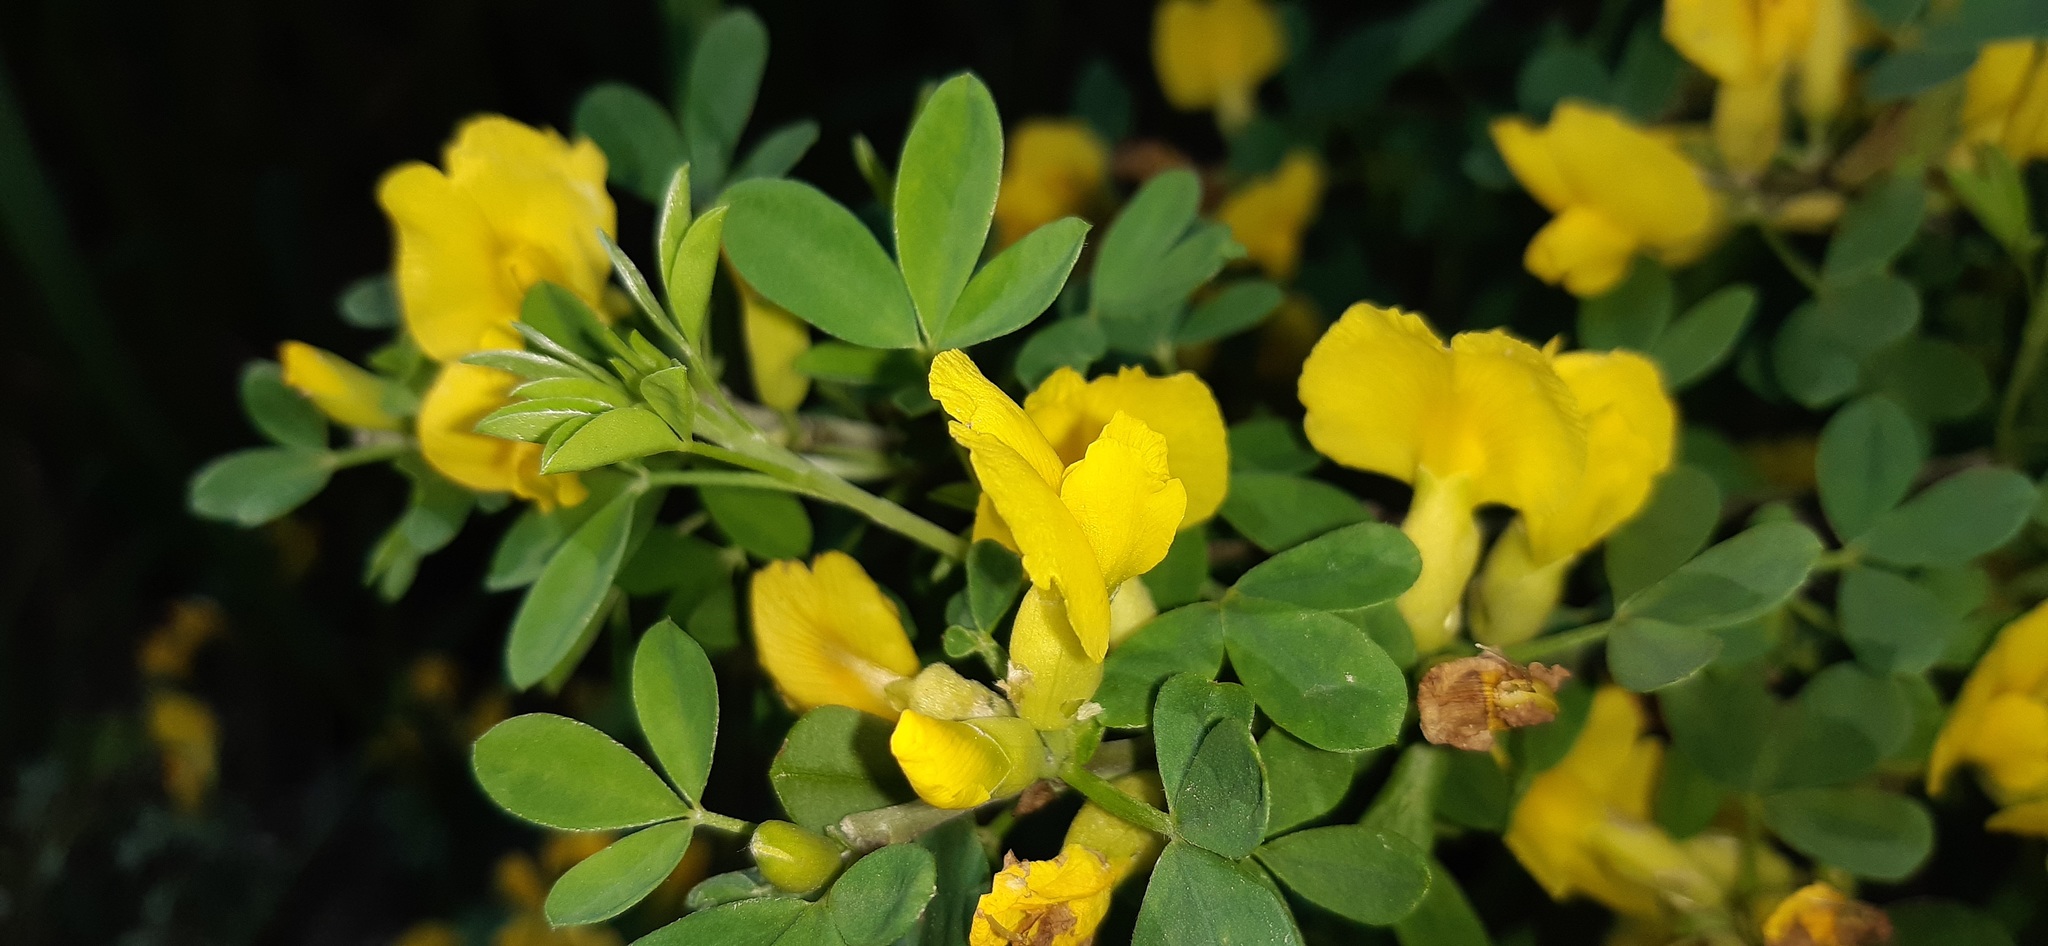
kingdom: Plantae
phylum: Tracheophyta
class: Magnoliopsida
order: Fabales
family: Fabaceae
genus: Chamaecytisus
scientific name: Chamaecytisus ruthenicus
